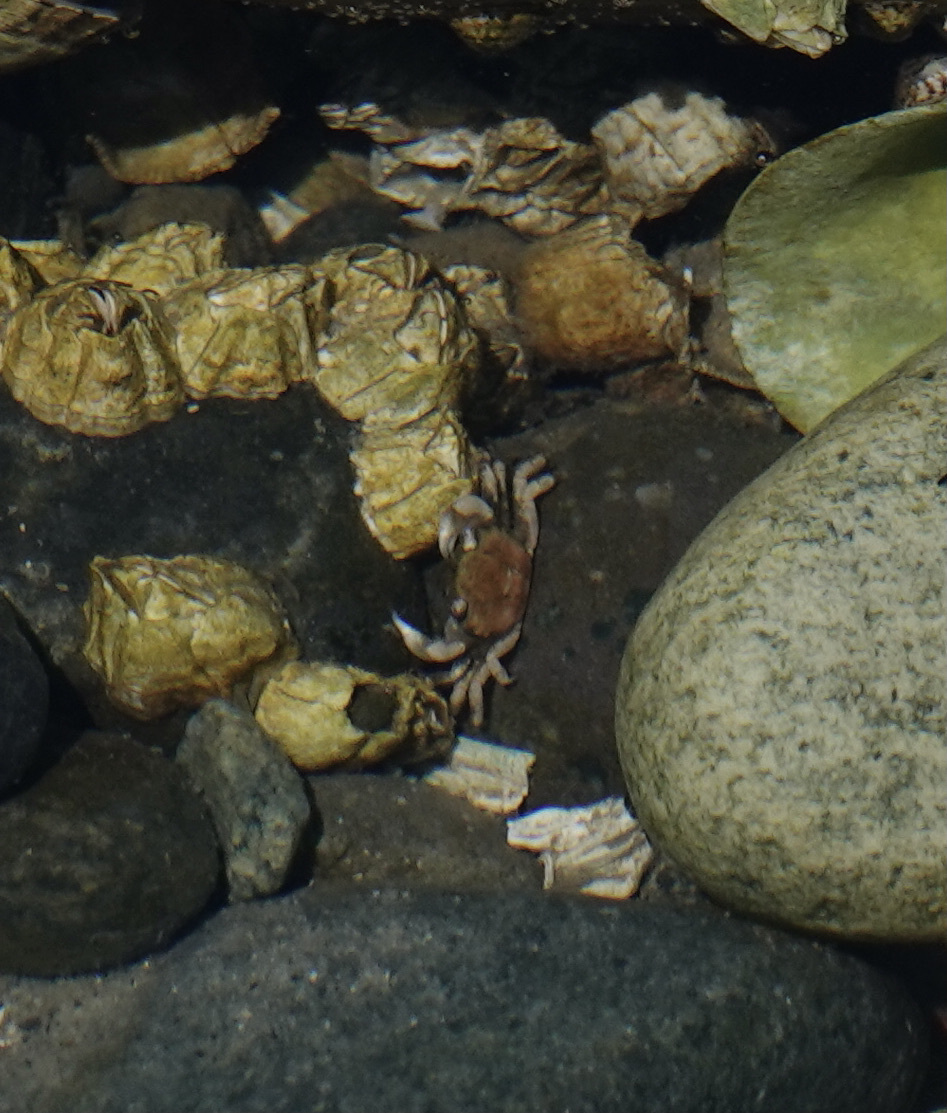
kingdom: Animalia
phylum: Arthropoda
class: Malacostraca
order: Decapoda
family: Varunidae
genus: Hemigrapsus
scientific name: Hemigrapsus oregonensis
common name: Yellow shore crab
